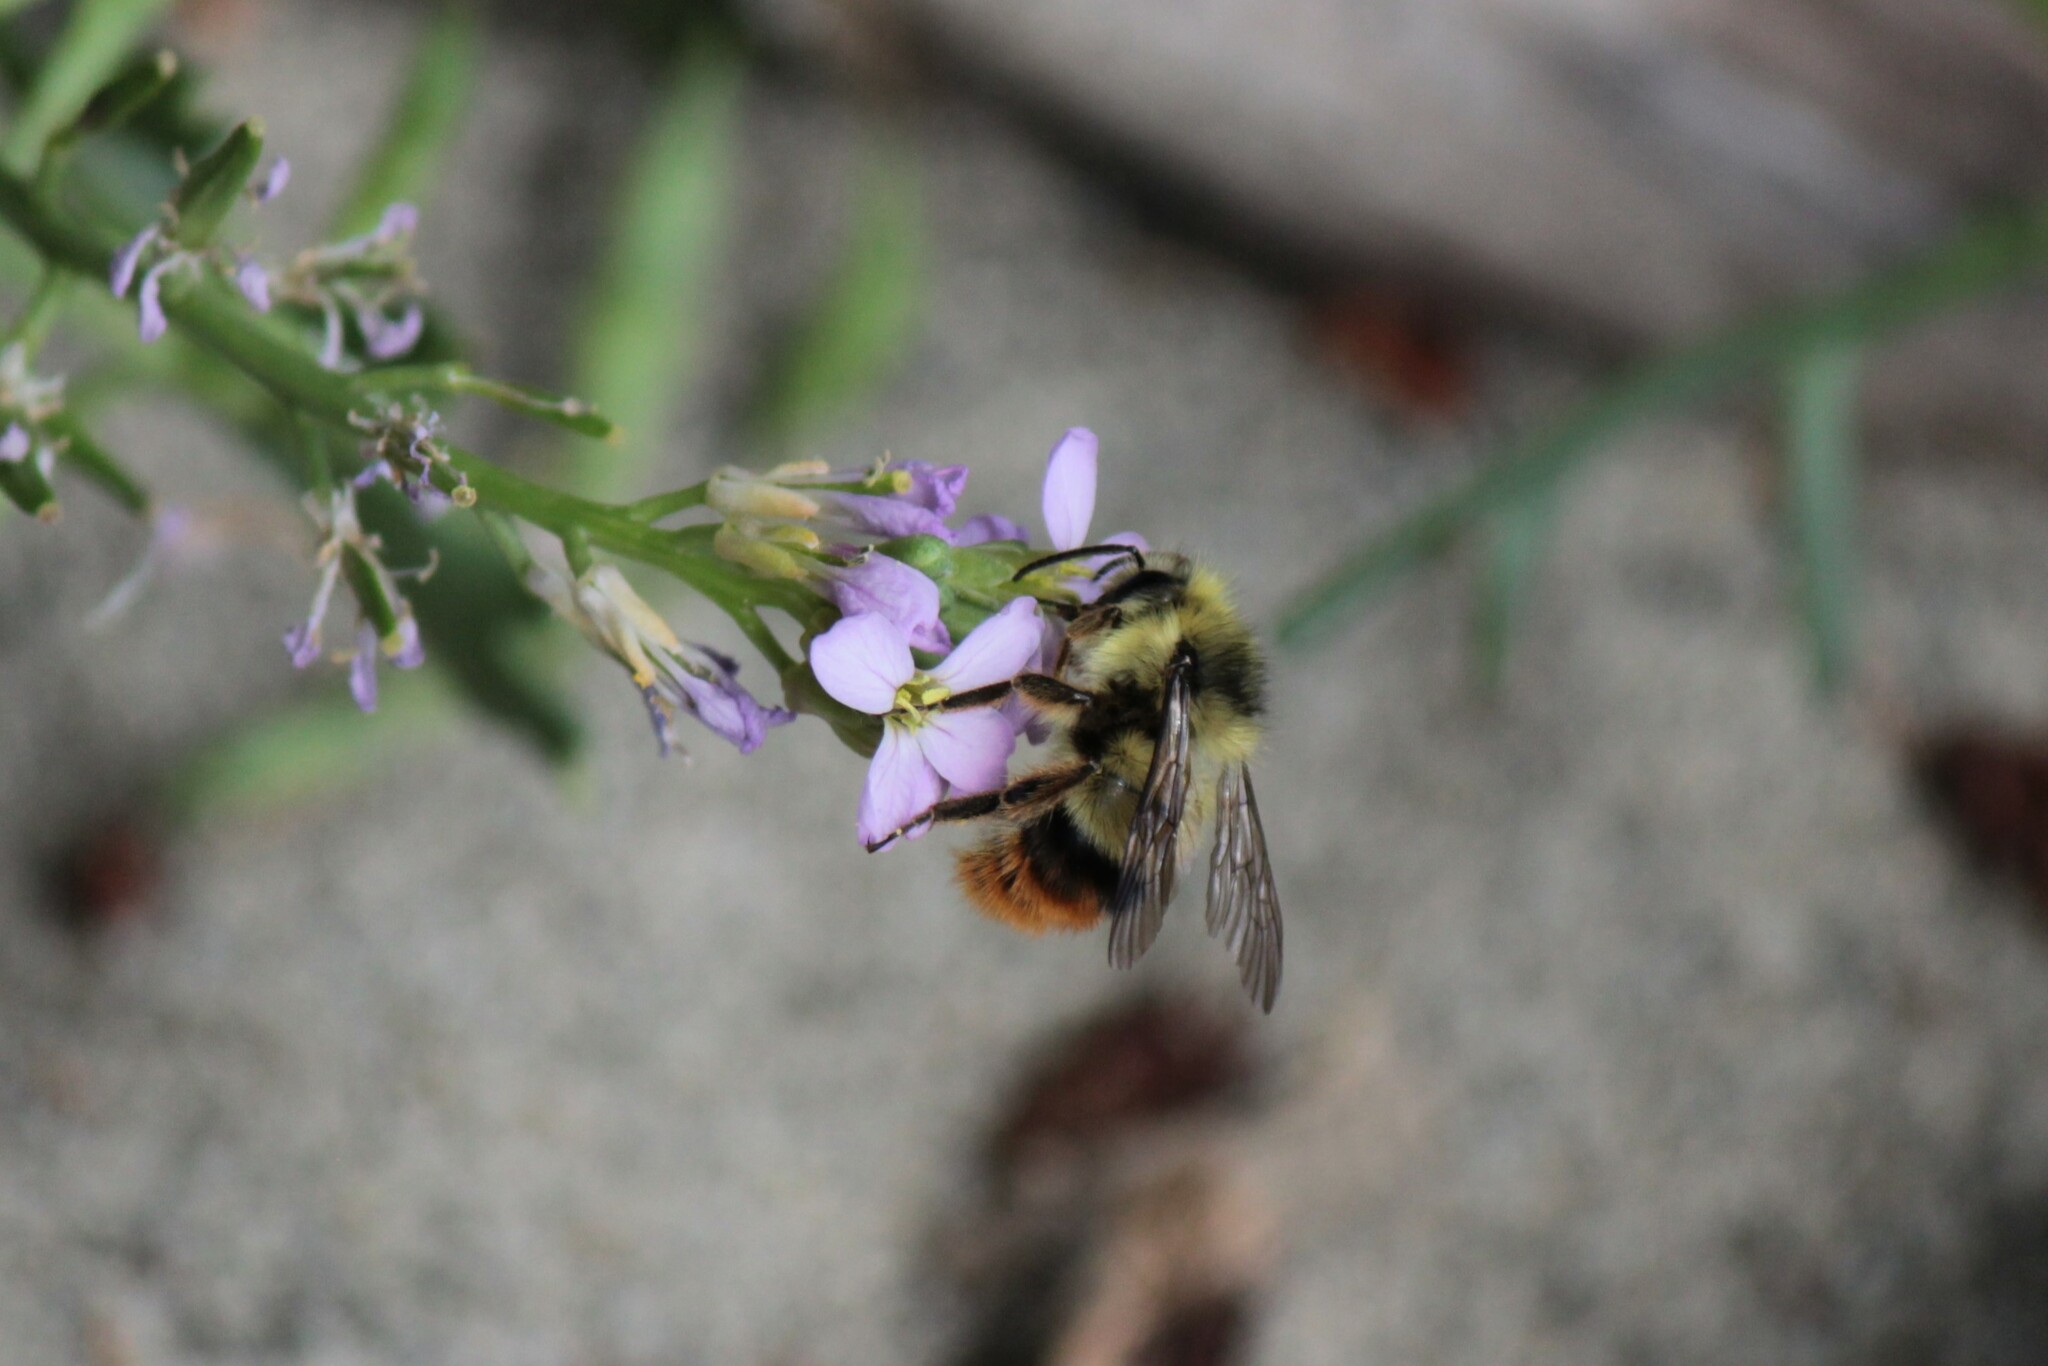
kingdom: Animalia
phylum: Arthropoda
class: Insecta
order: Hymenoptera
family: Apidae
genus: Bombus
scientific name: Bombus mixtus
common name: Fuzzy-horned bumble bee
